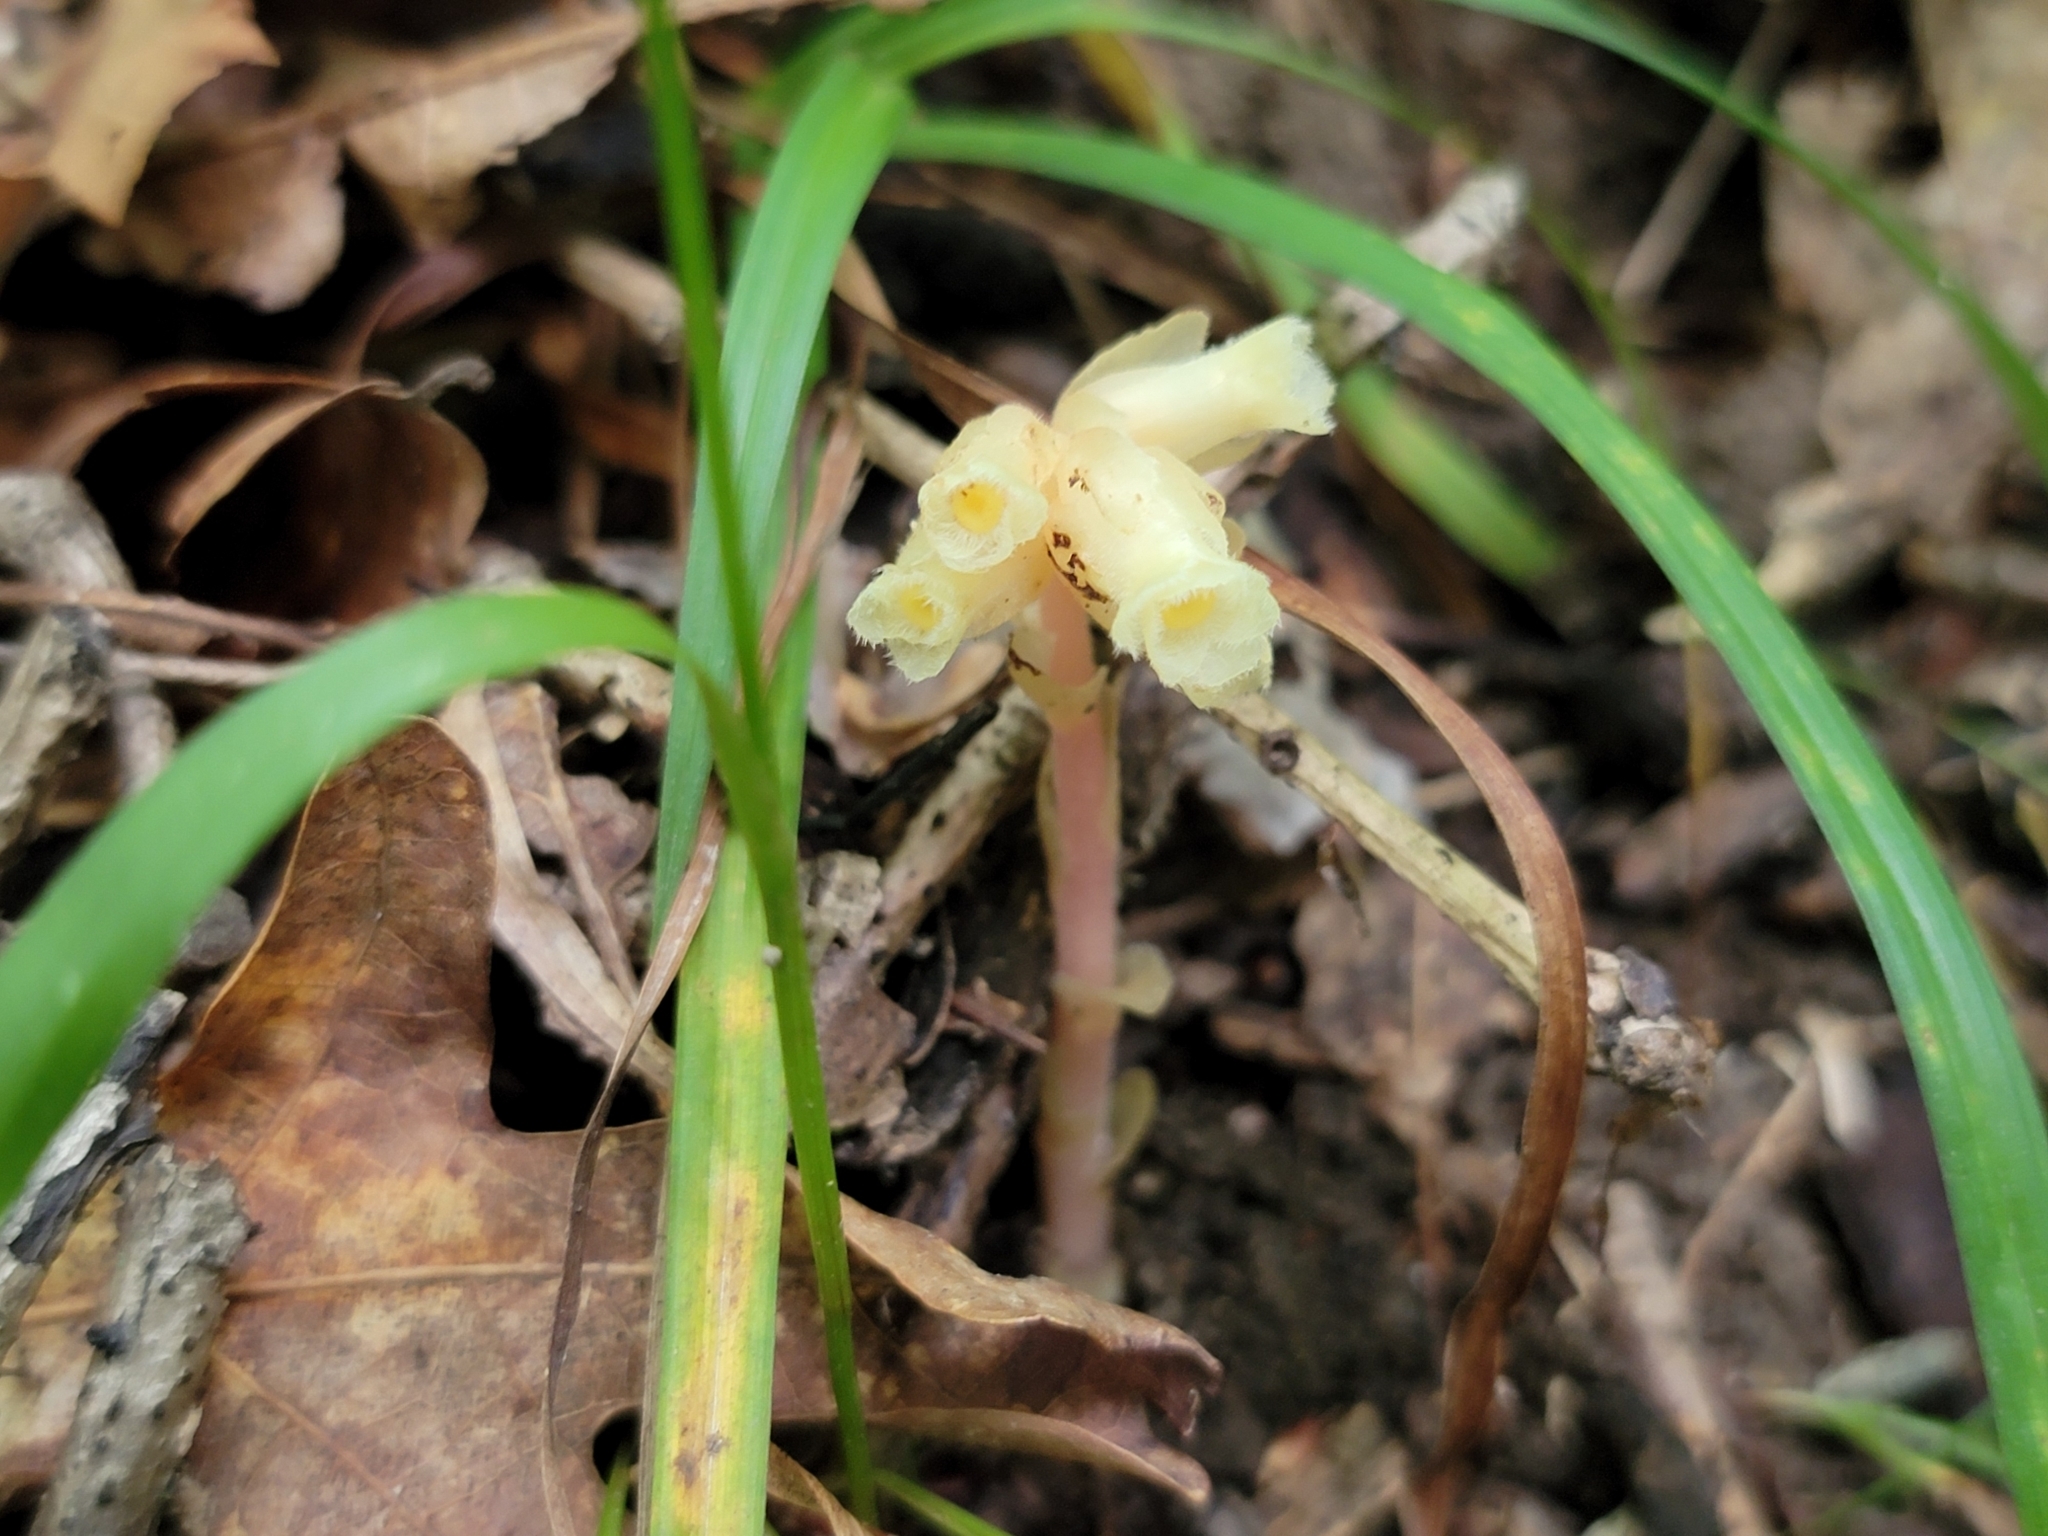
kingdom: Plantae
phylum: Tracheophyta
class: Magnoliopsida
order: Ericales
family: Ericaceae
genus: Hypopitys
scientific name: Hypopitys monotropa
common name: Yellow bird's-nest
